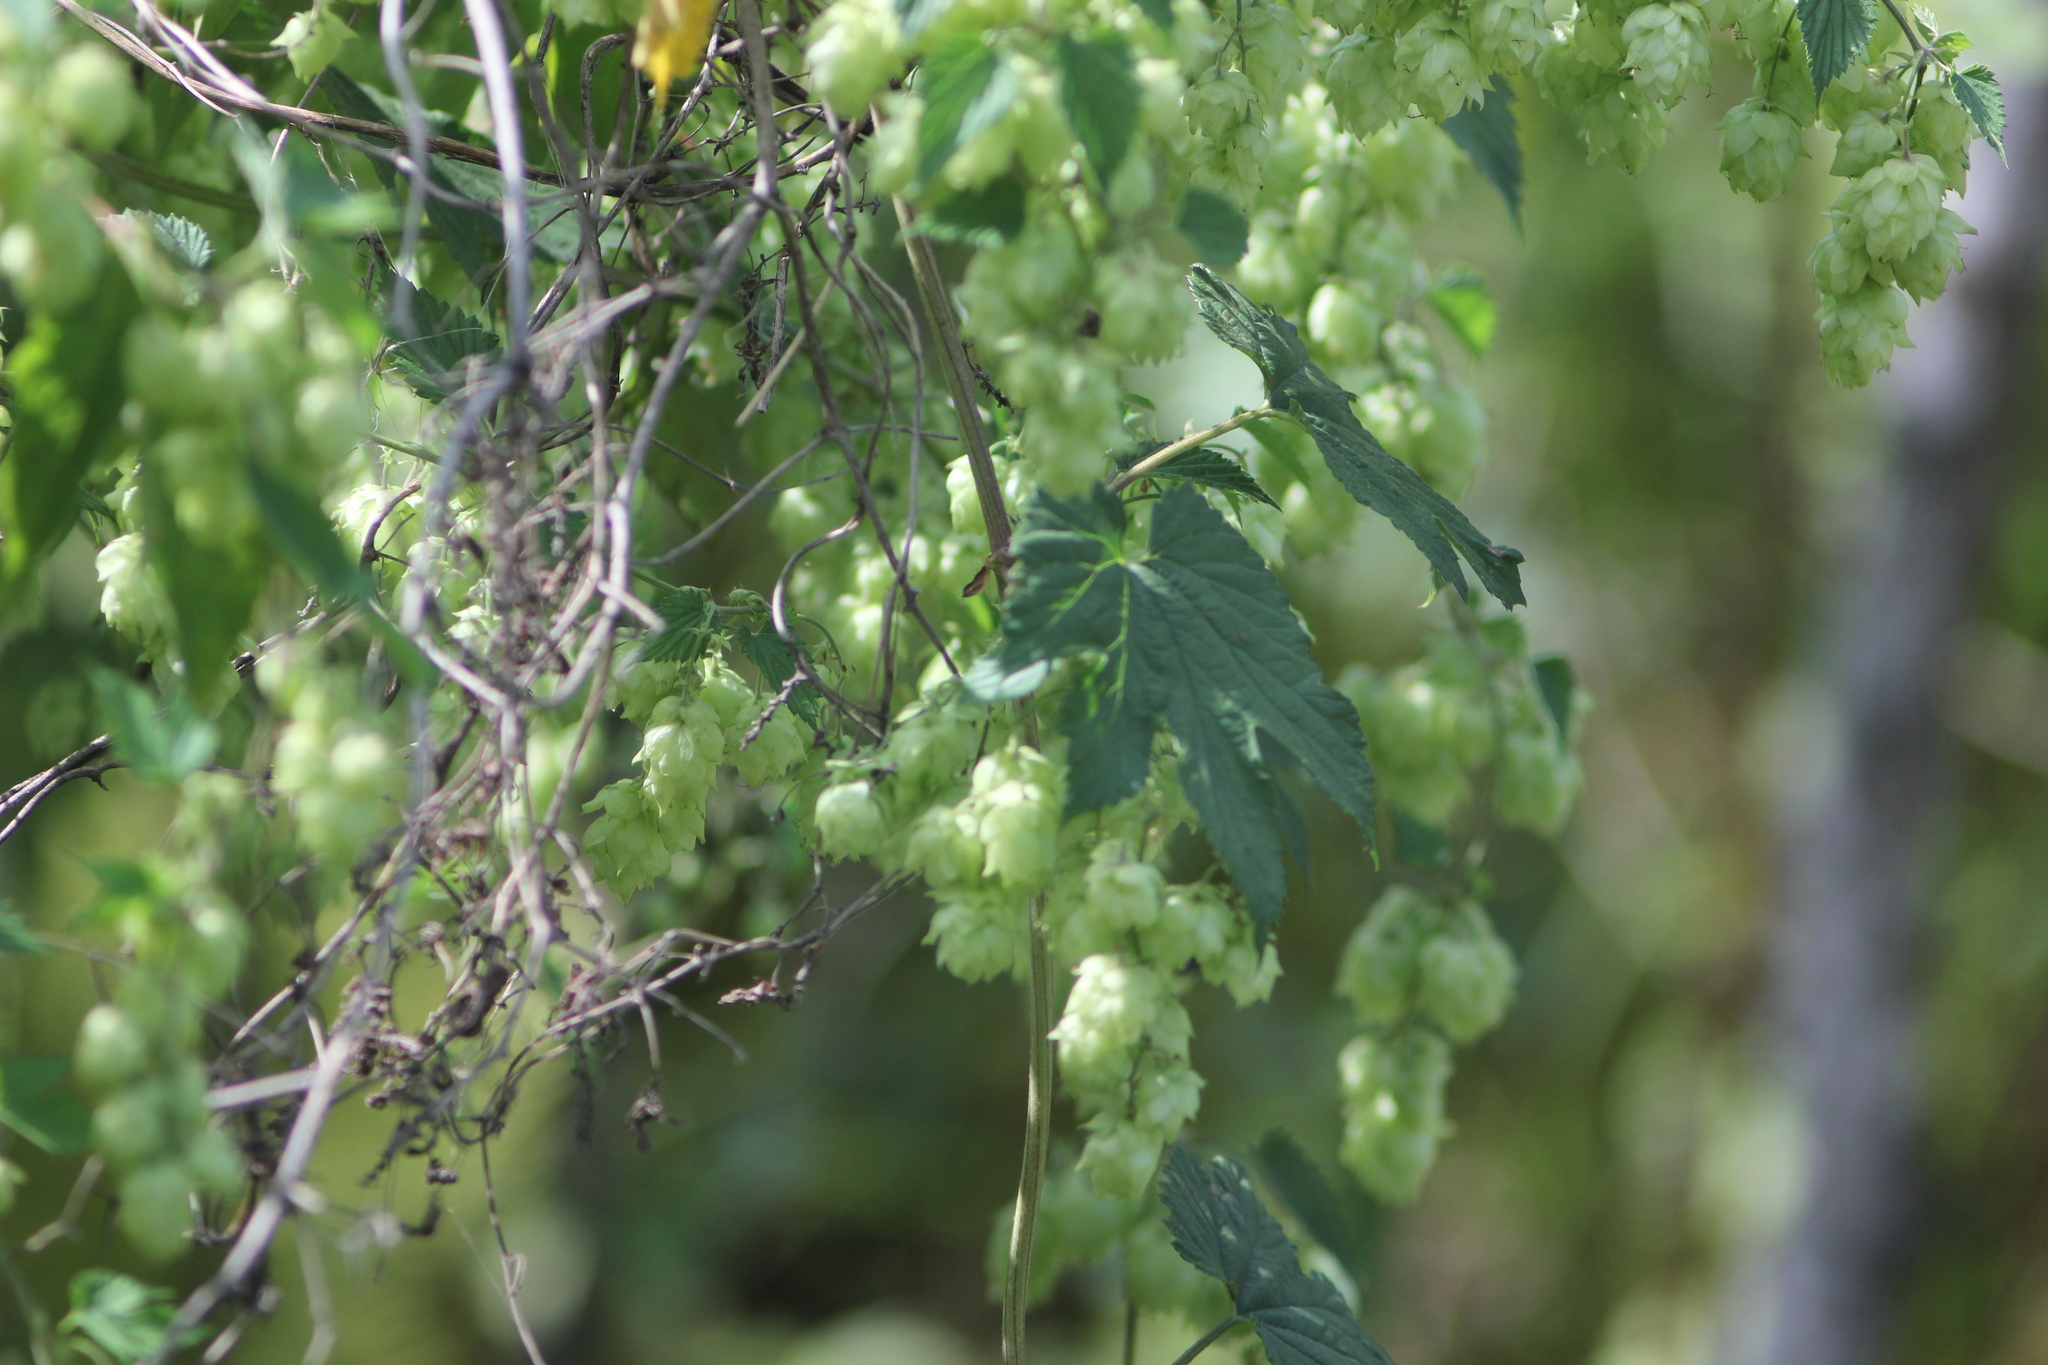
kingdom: Plantae
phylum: Tracheophyta
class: Magnoliopsida
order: Rosales
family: Cannabaceae
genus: Humulus
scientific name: Humulus lupulus
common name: Hop
